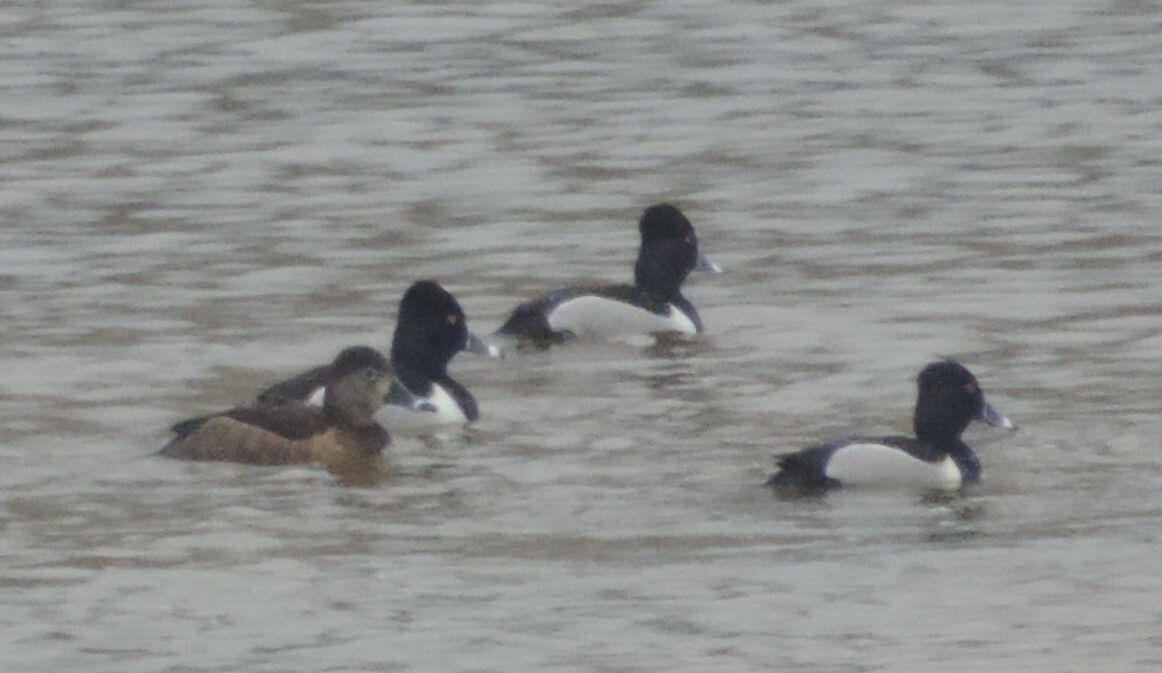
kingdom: Animalia
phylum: Chordata
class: Aves
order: Anseriformes
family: Anatidae
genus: Aythya
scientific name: Aythya collaris
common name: Ring-necked duck
